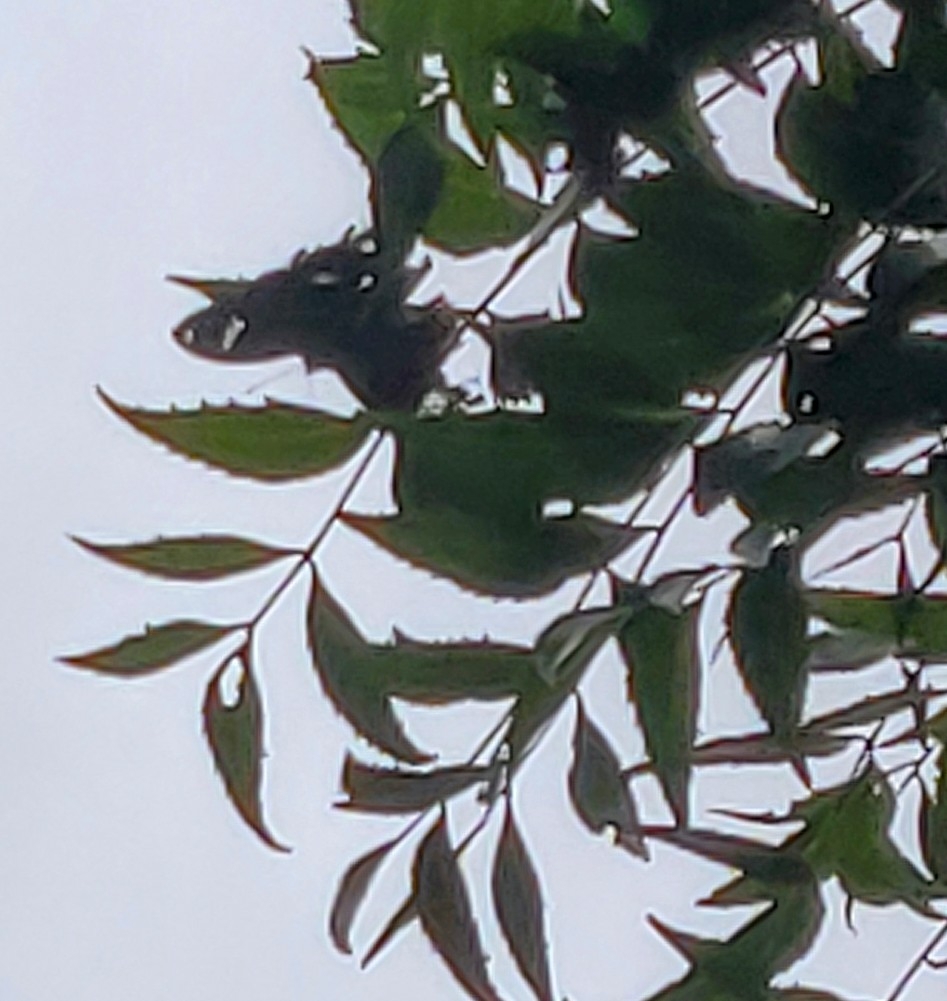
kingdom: Animalia
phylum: Arthropoda
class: Insecta
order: Lepidoptera
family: Nymphalidae
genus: Hypolimnas
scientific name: Hypolimnas bolina
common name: Great eggfly
